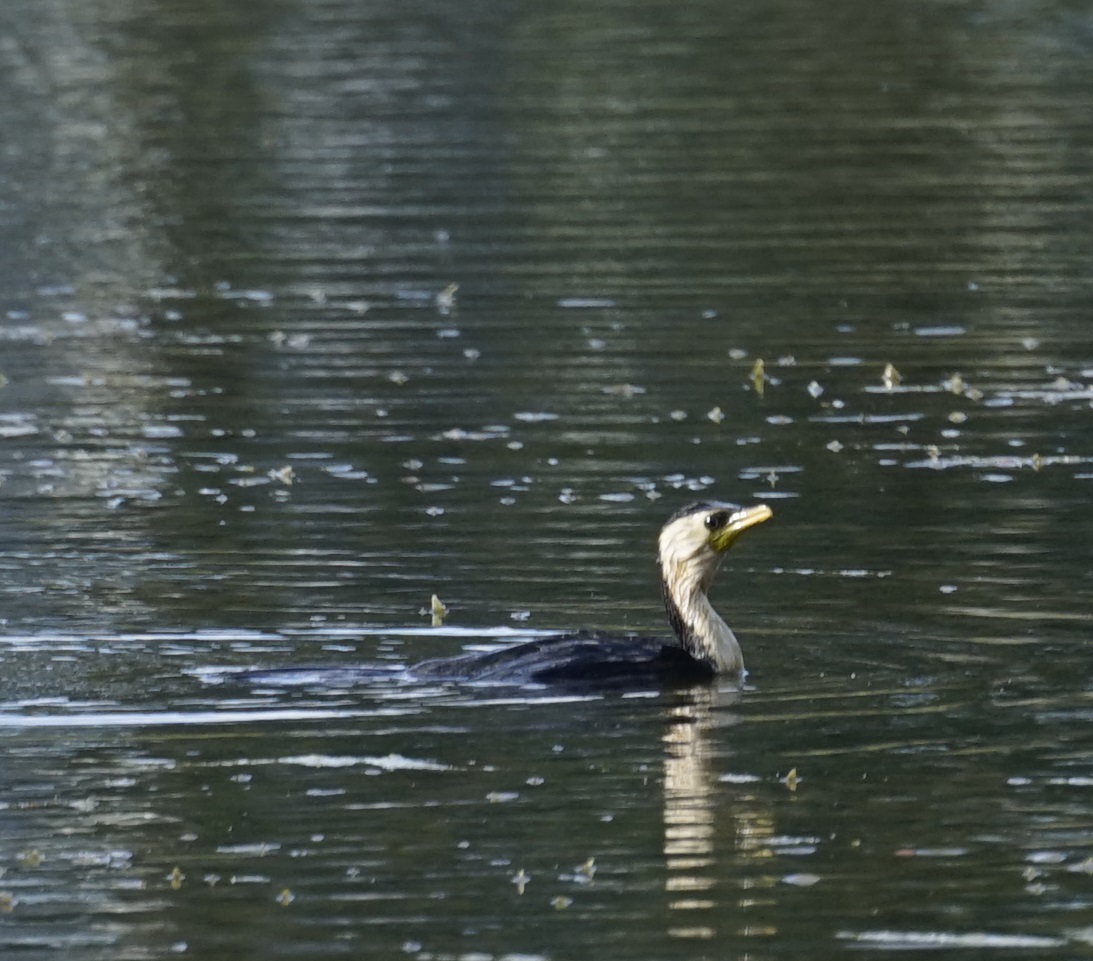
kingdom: Animalia
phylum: Chordata
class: Aves
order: Suliformes
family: Phalacrocoracidae
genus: Microcarbo
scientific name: Microcarbo melanoleucos
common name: Little pied cormorant
